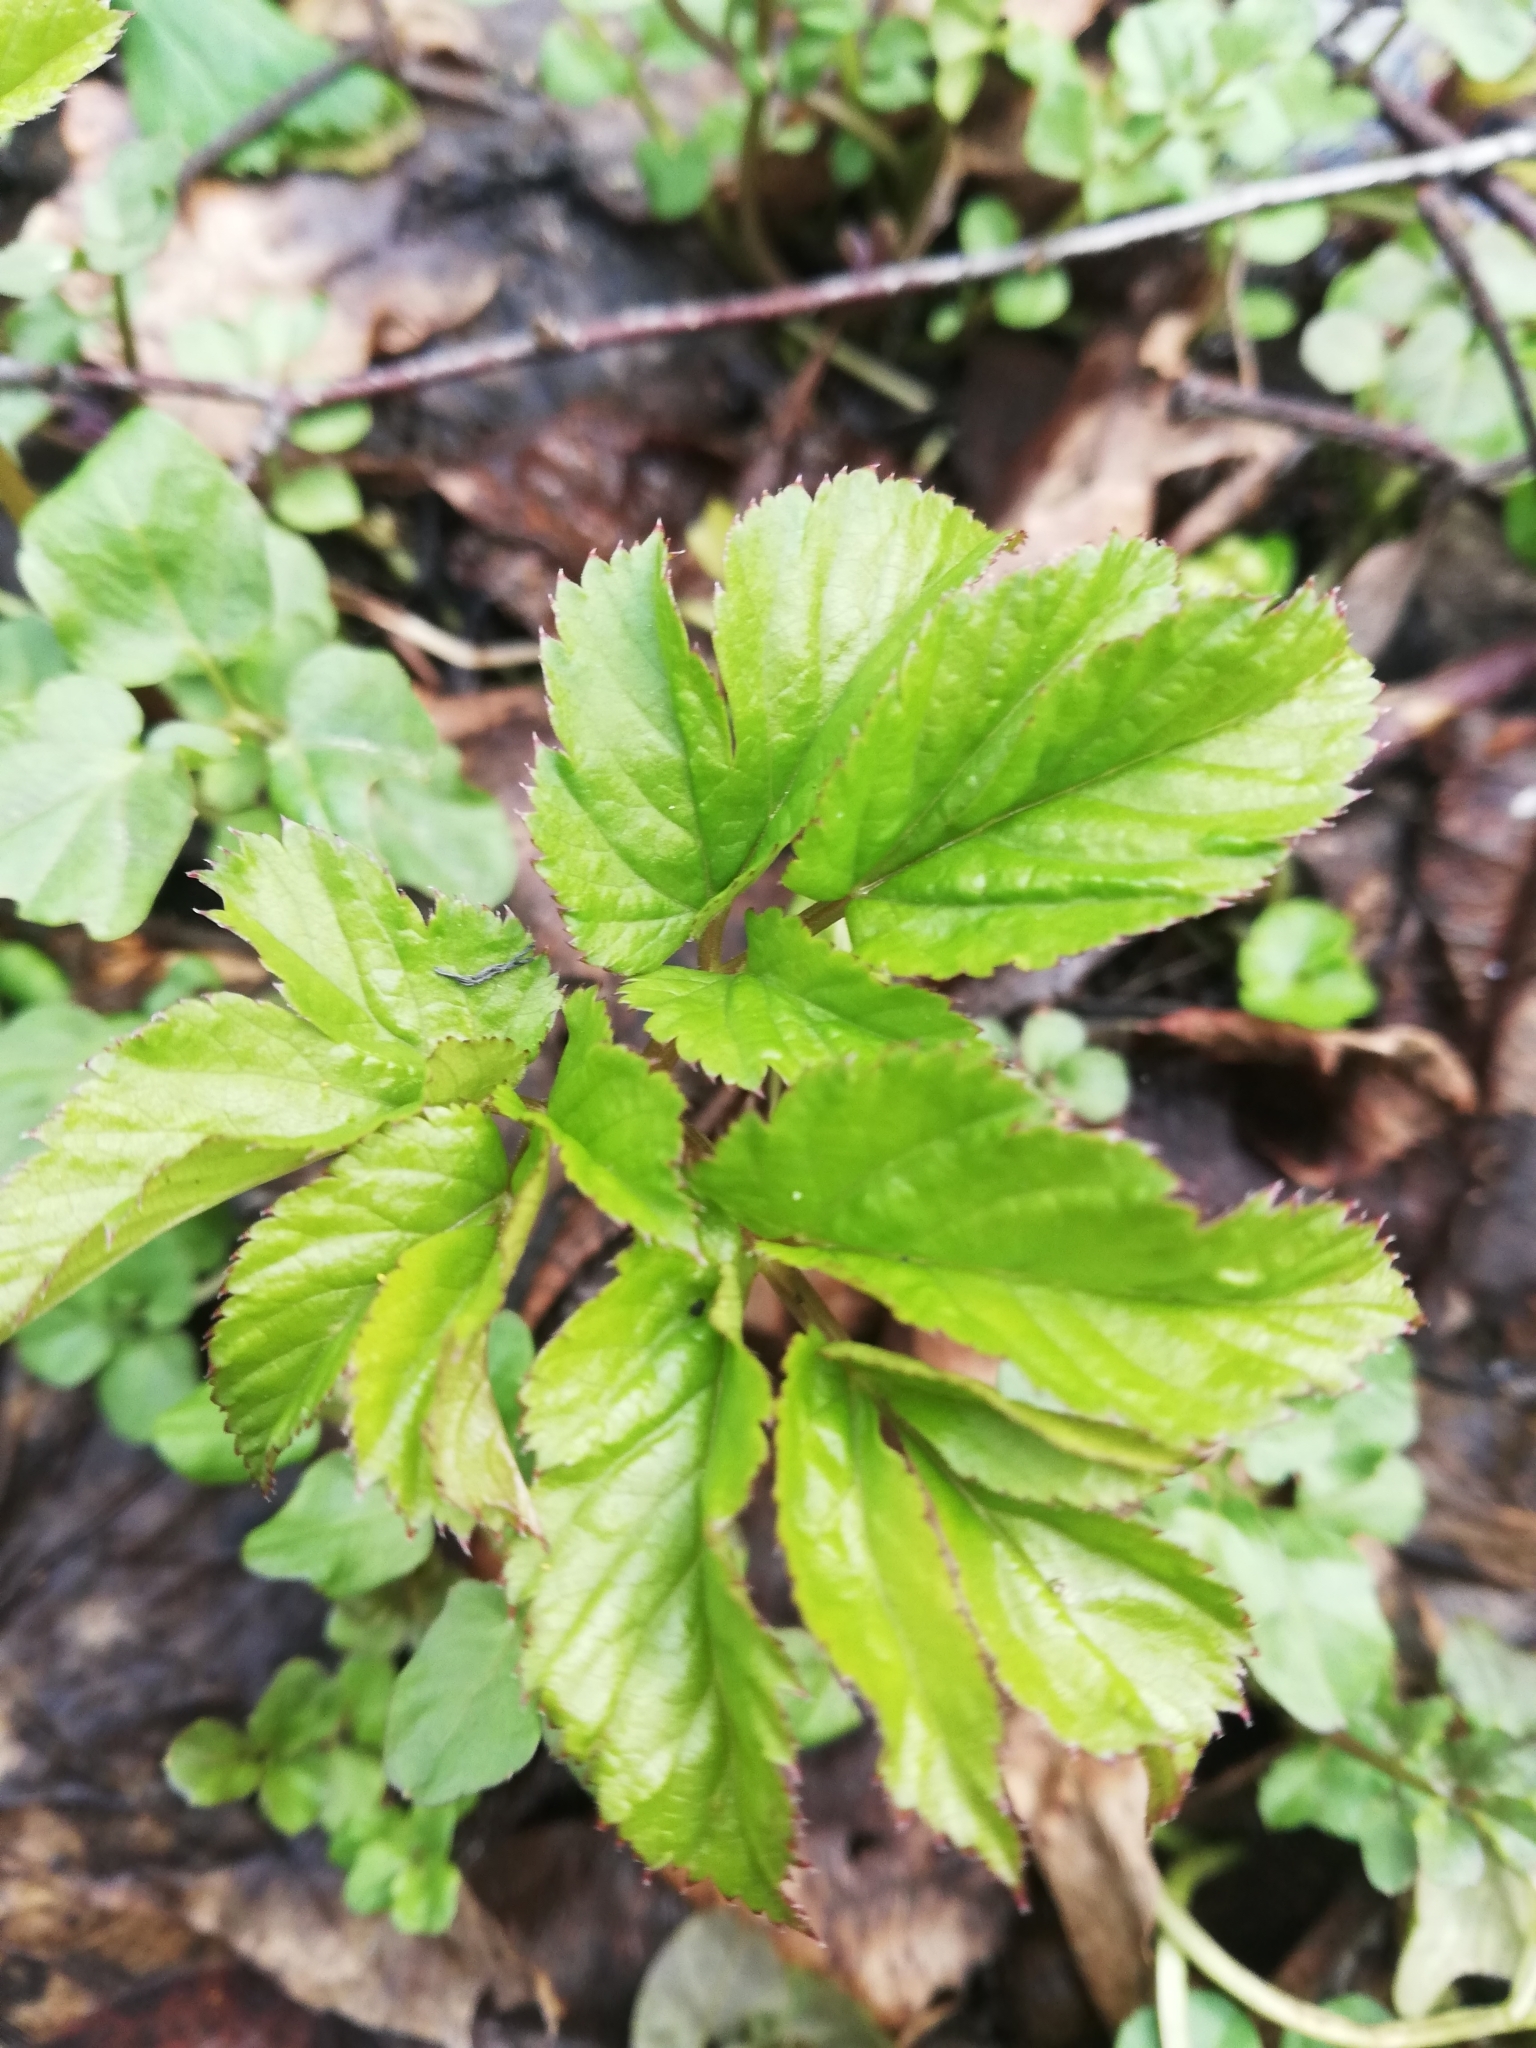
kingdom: Plantae
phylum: Tracheophyta
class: Magnoliopsida
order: Apiales
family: Apiaceae
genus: Aegopodium
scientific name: Aegopodium podagraria
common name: Ground-elder
